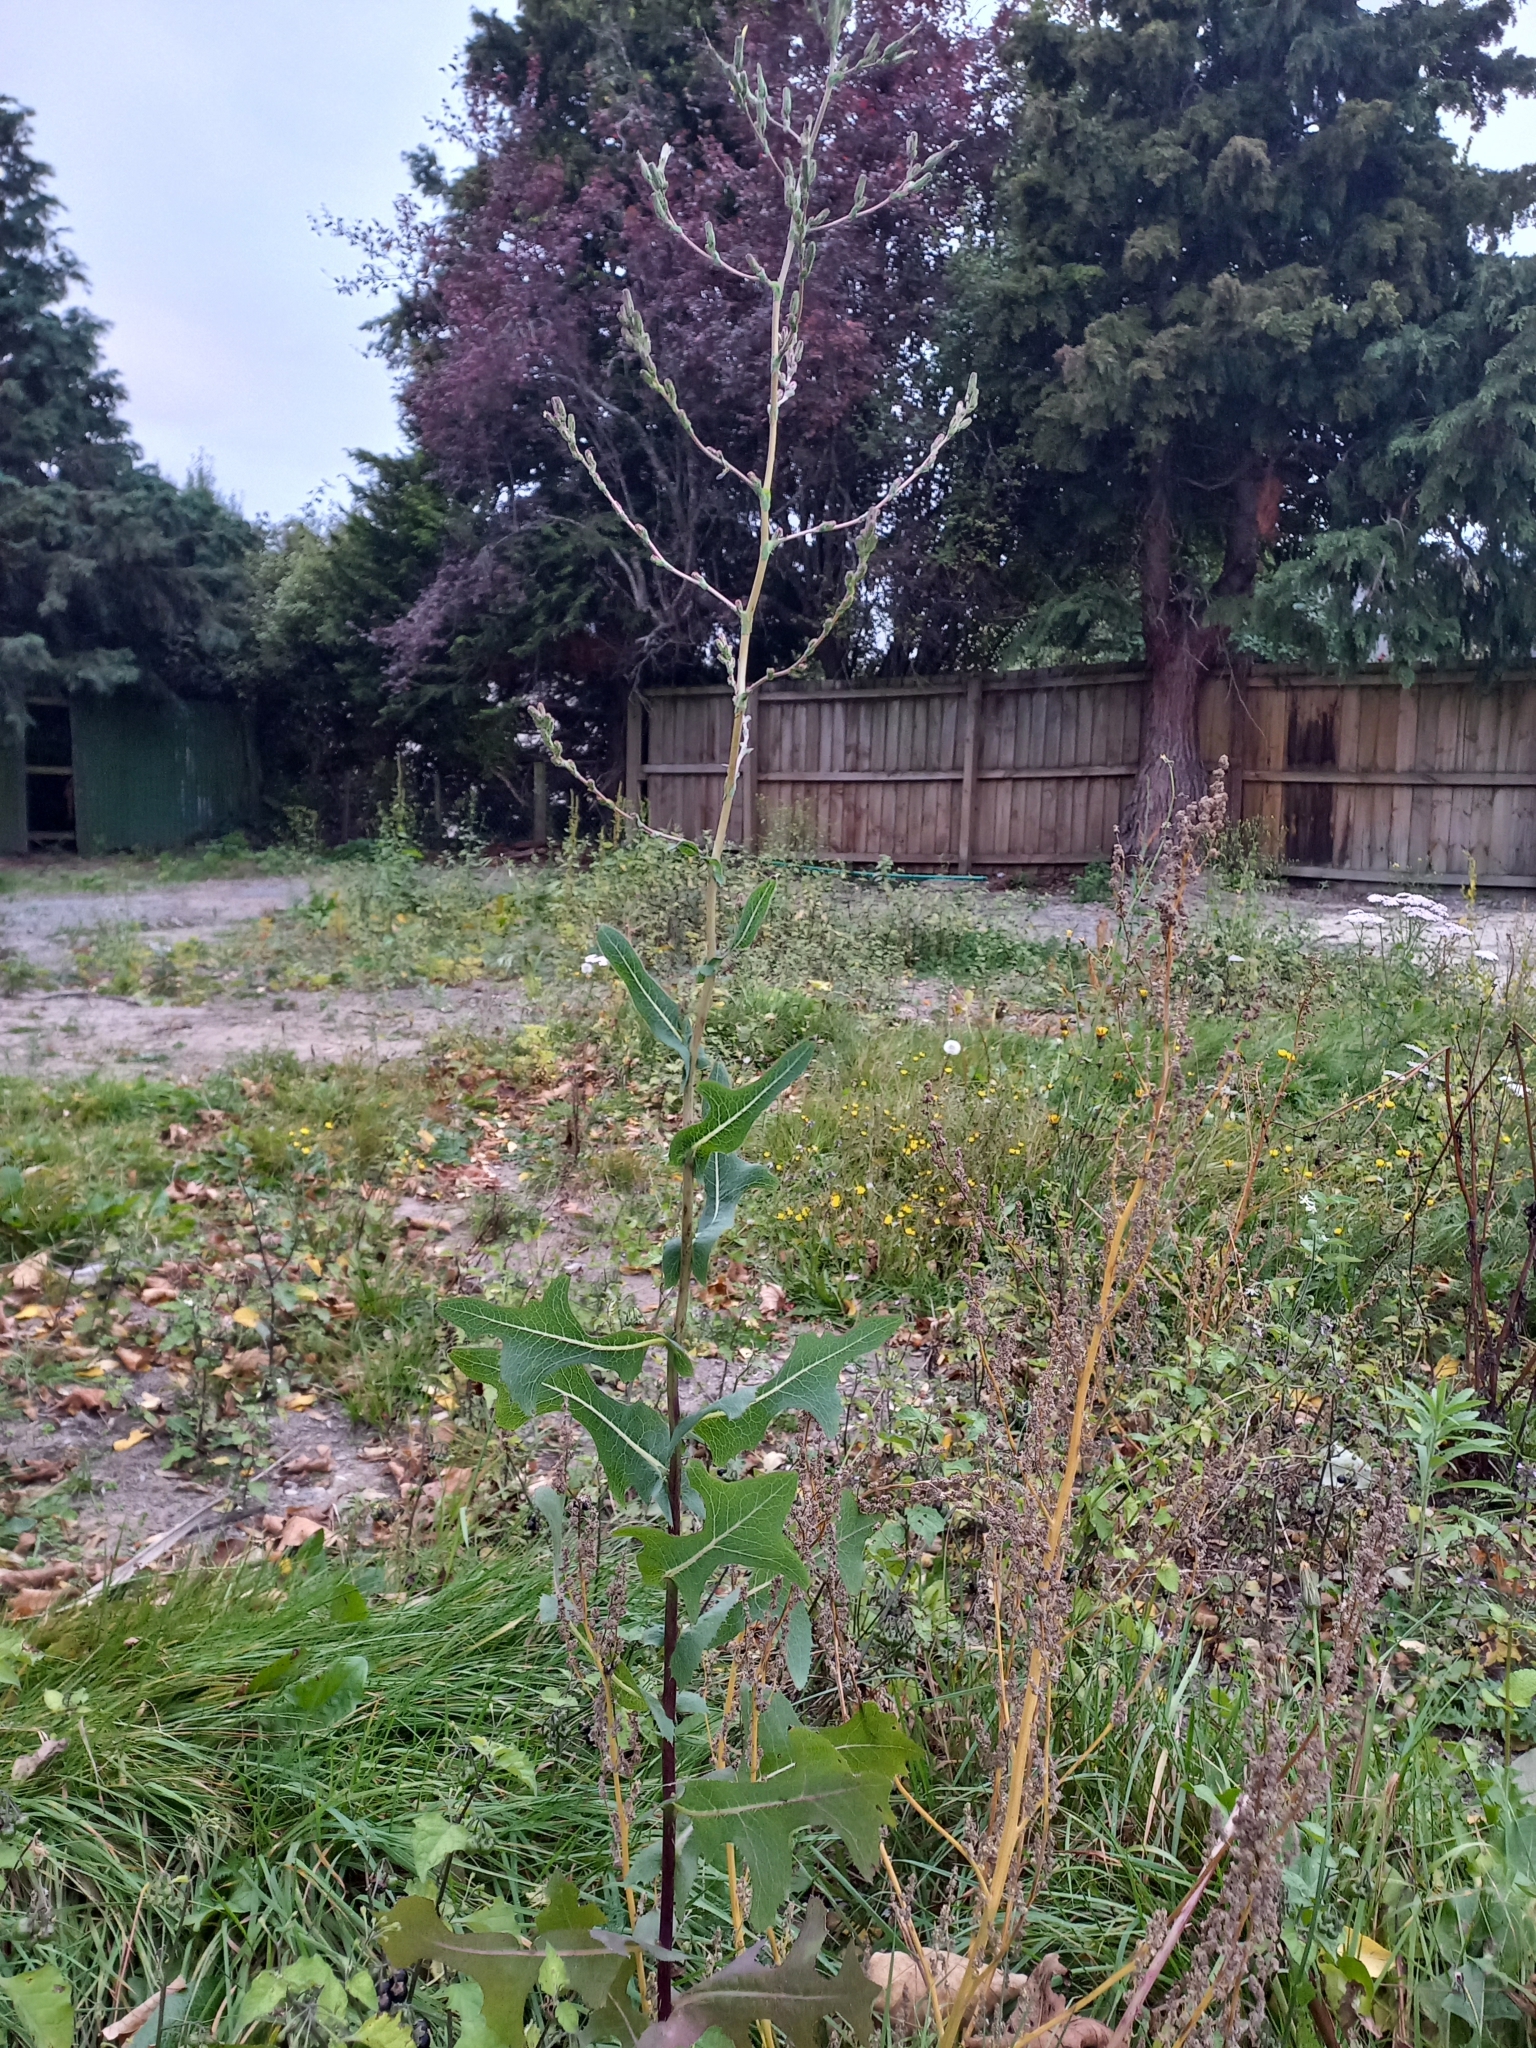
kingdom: Plantae
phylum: Tracheophyta
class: Magnoliopsida
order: Asterales
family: Asteraceae
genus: Lactuca
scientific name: Lactuca serriola
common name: Prickly lettuce
